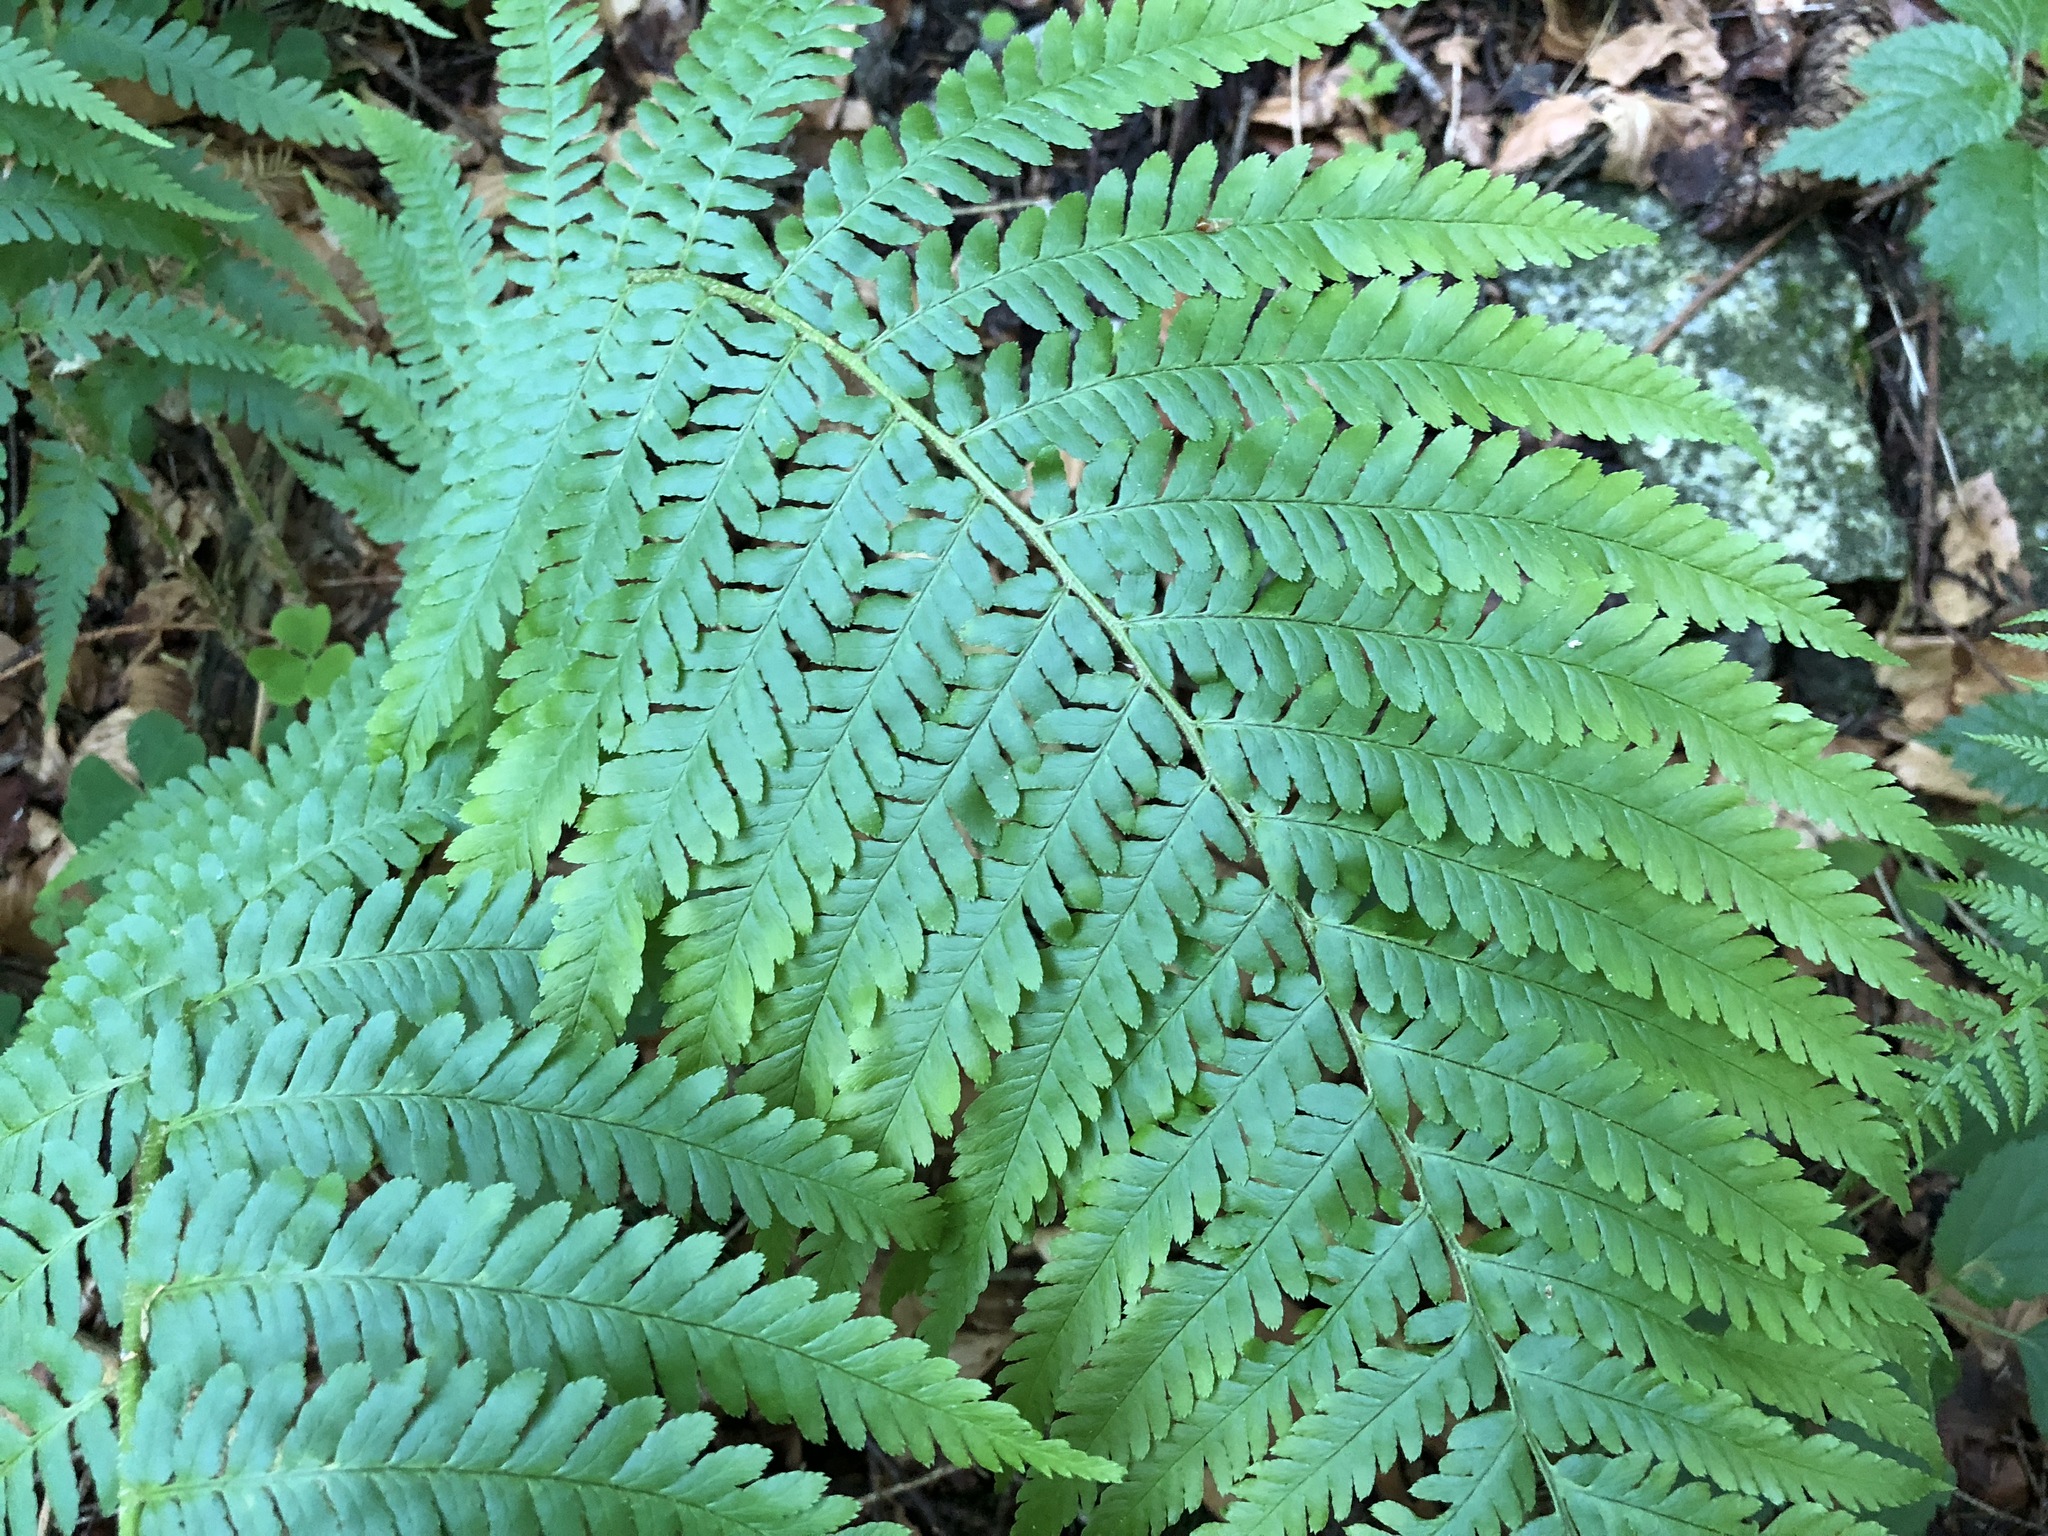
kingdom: Plantae
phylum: Tracheophyta
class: Polypodiopsida
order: Polypodiales
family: Dryopteridaceae
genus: Dryopteris
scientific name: Dryopteris filix-mas
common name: Male fern
